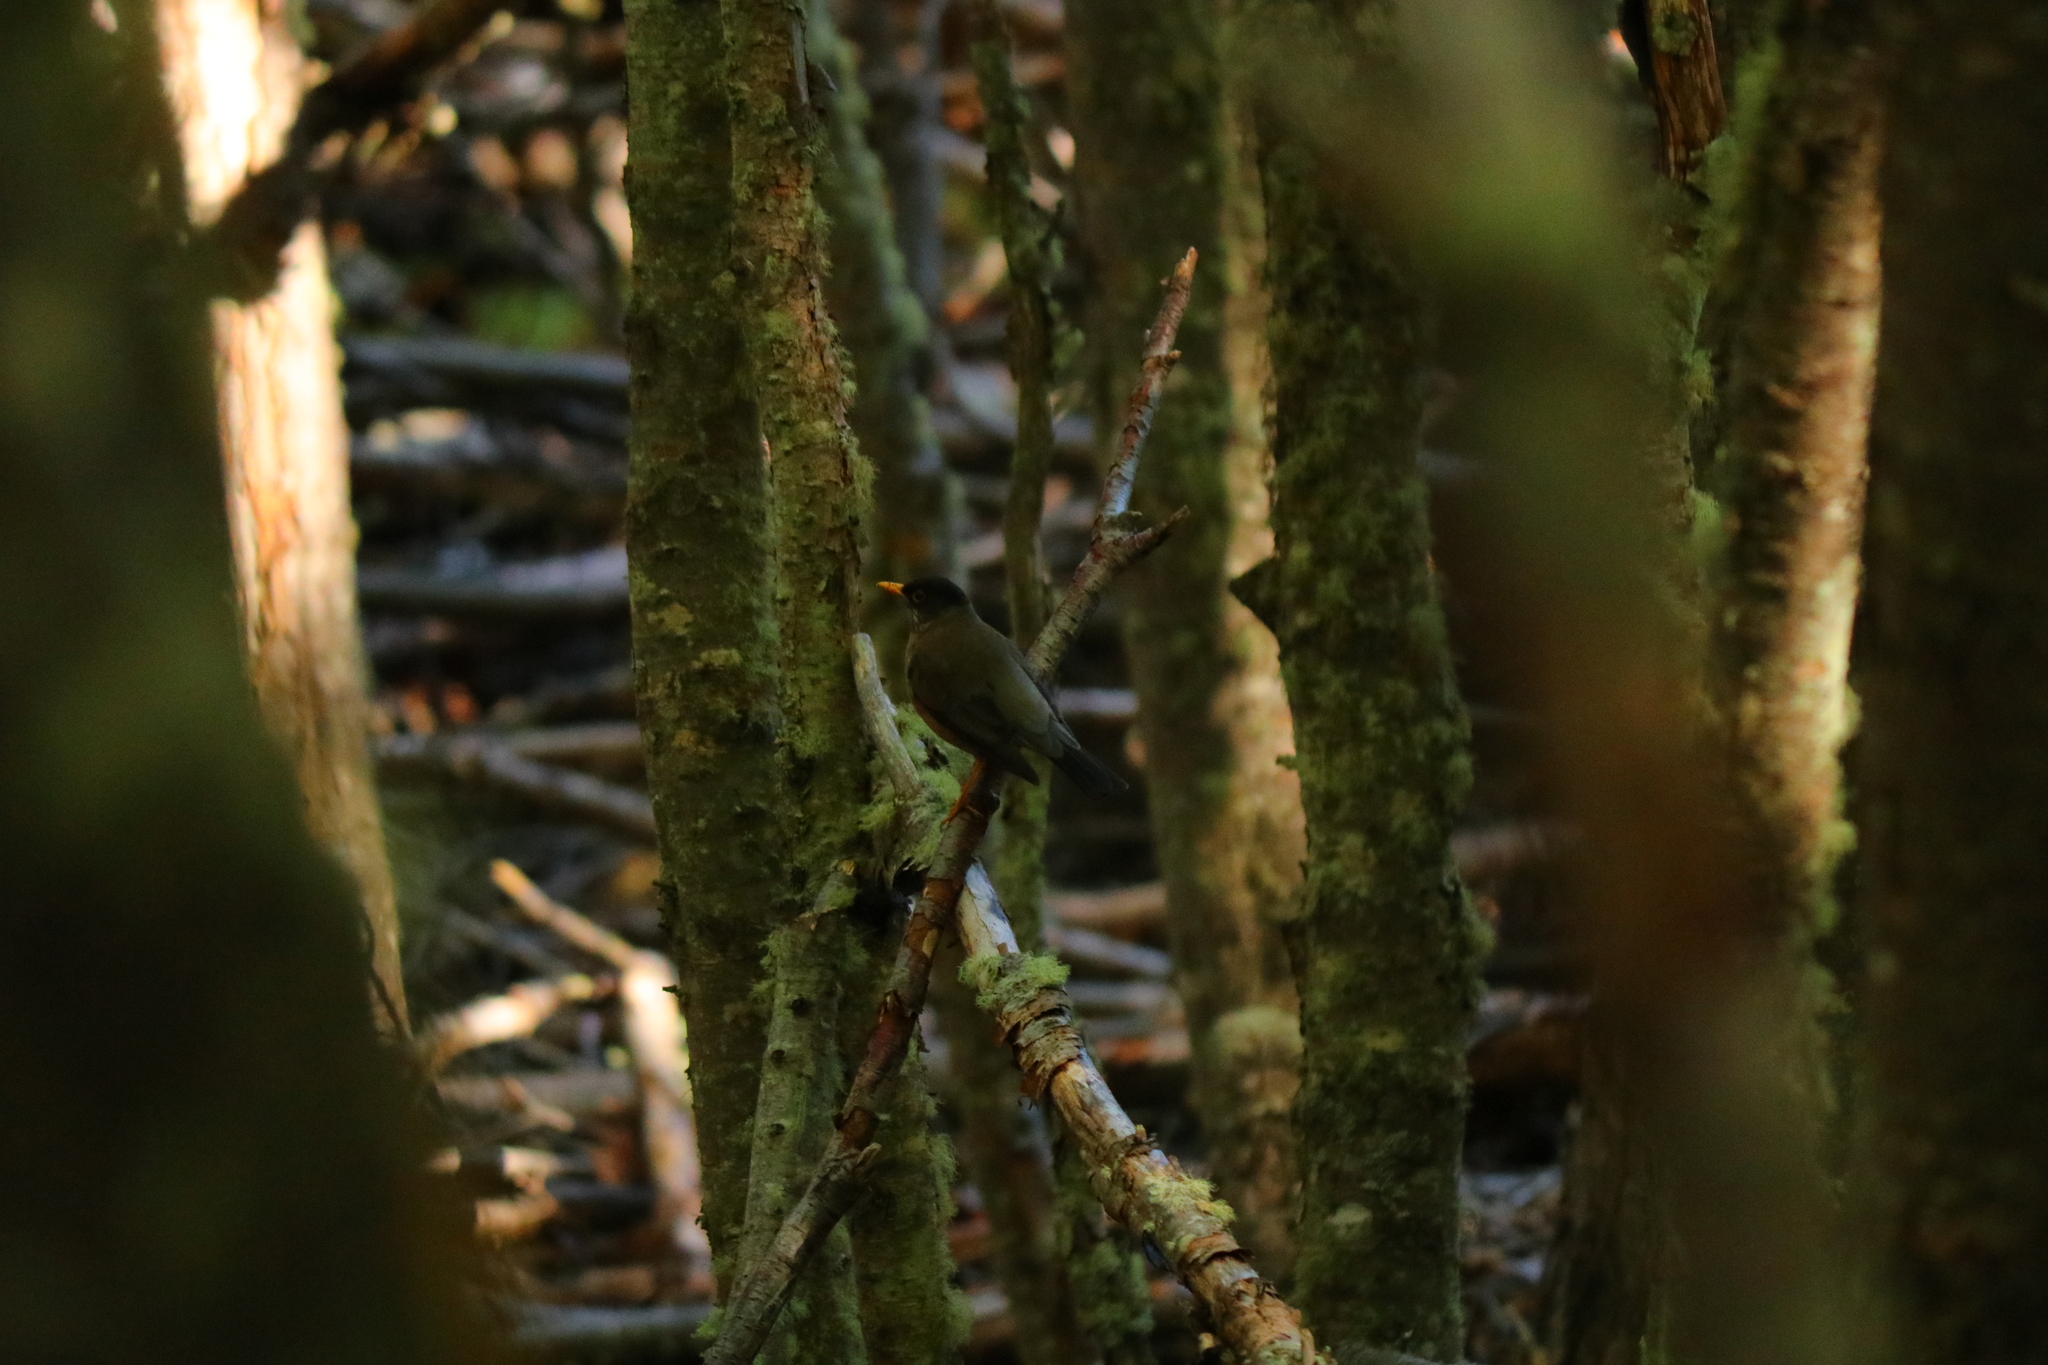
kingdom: Animalia
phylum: Chordata
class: Aves
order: Passeriformes
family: Turdidae
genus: Turdus
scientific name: Turdus falcklandii
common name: Austral thrush
